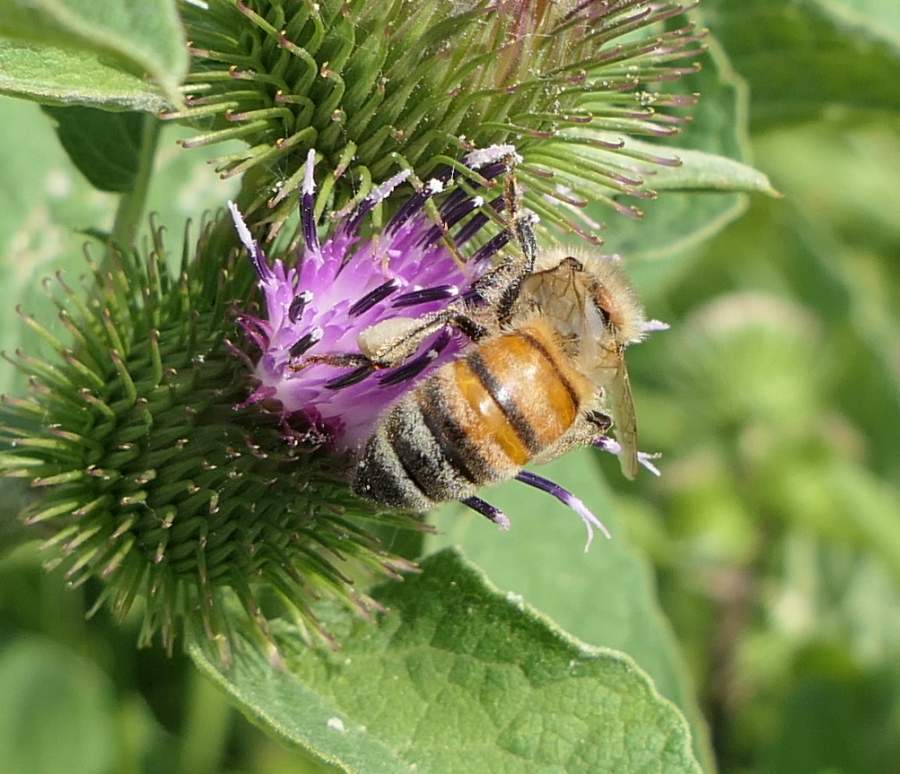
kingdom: Animalia
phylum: Arthropoda
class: Insecta
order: Hymenoptera
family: Apidae
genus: Apis
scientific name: Apis mellifera
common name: Honey bee
